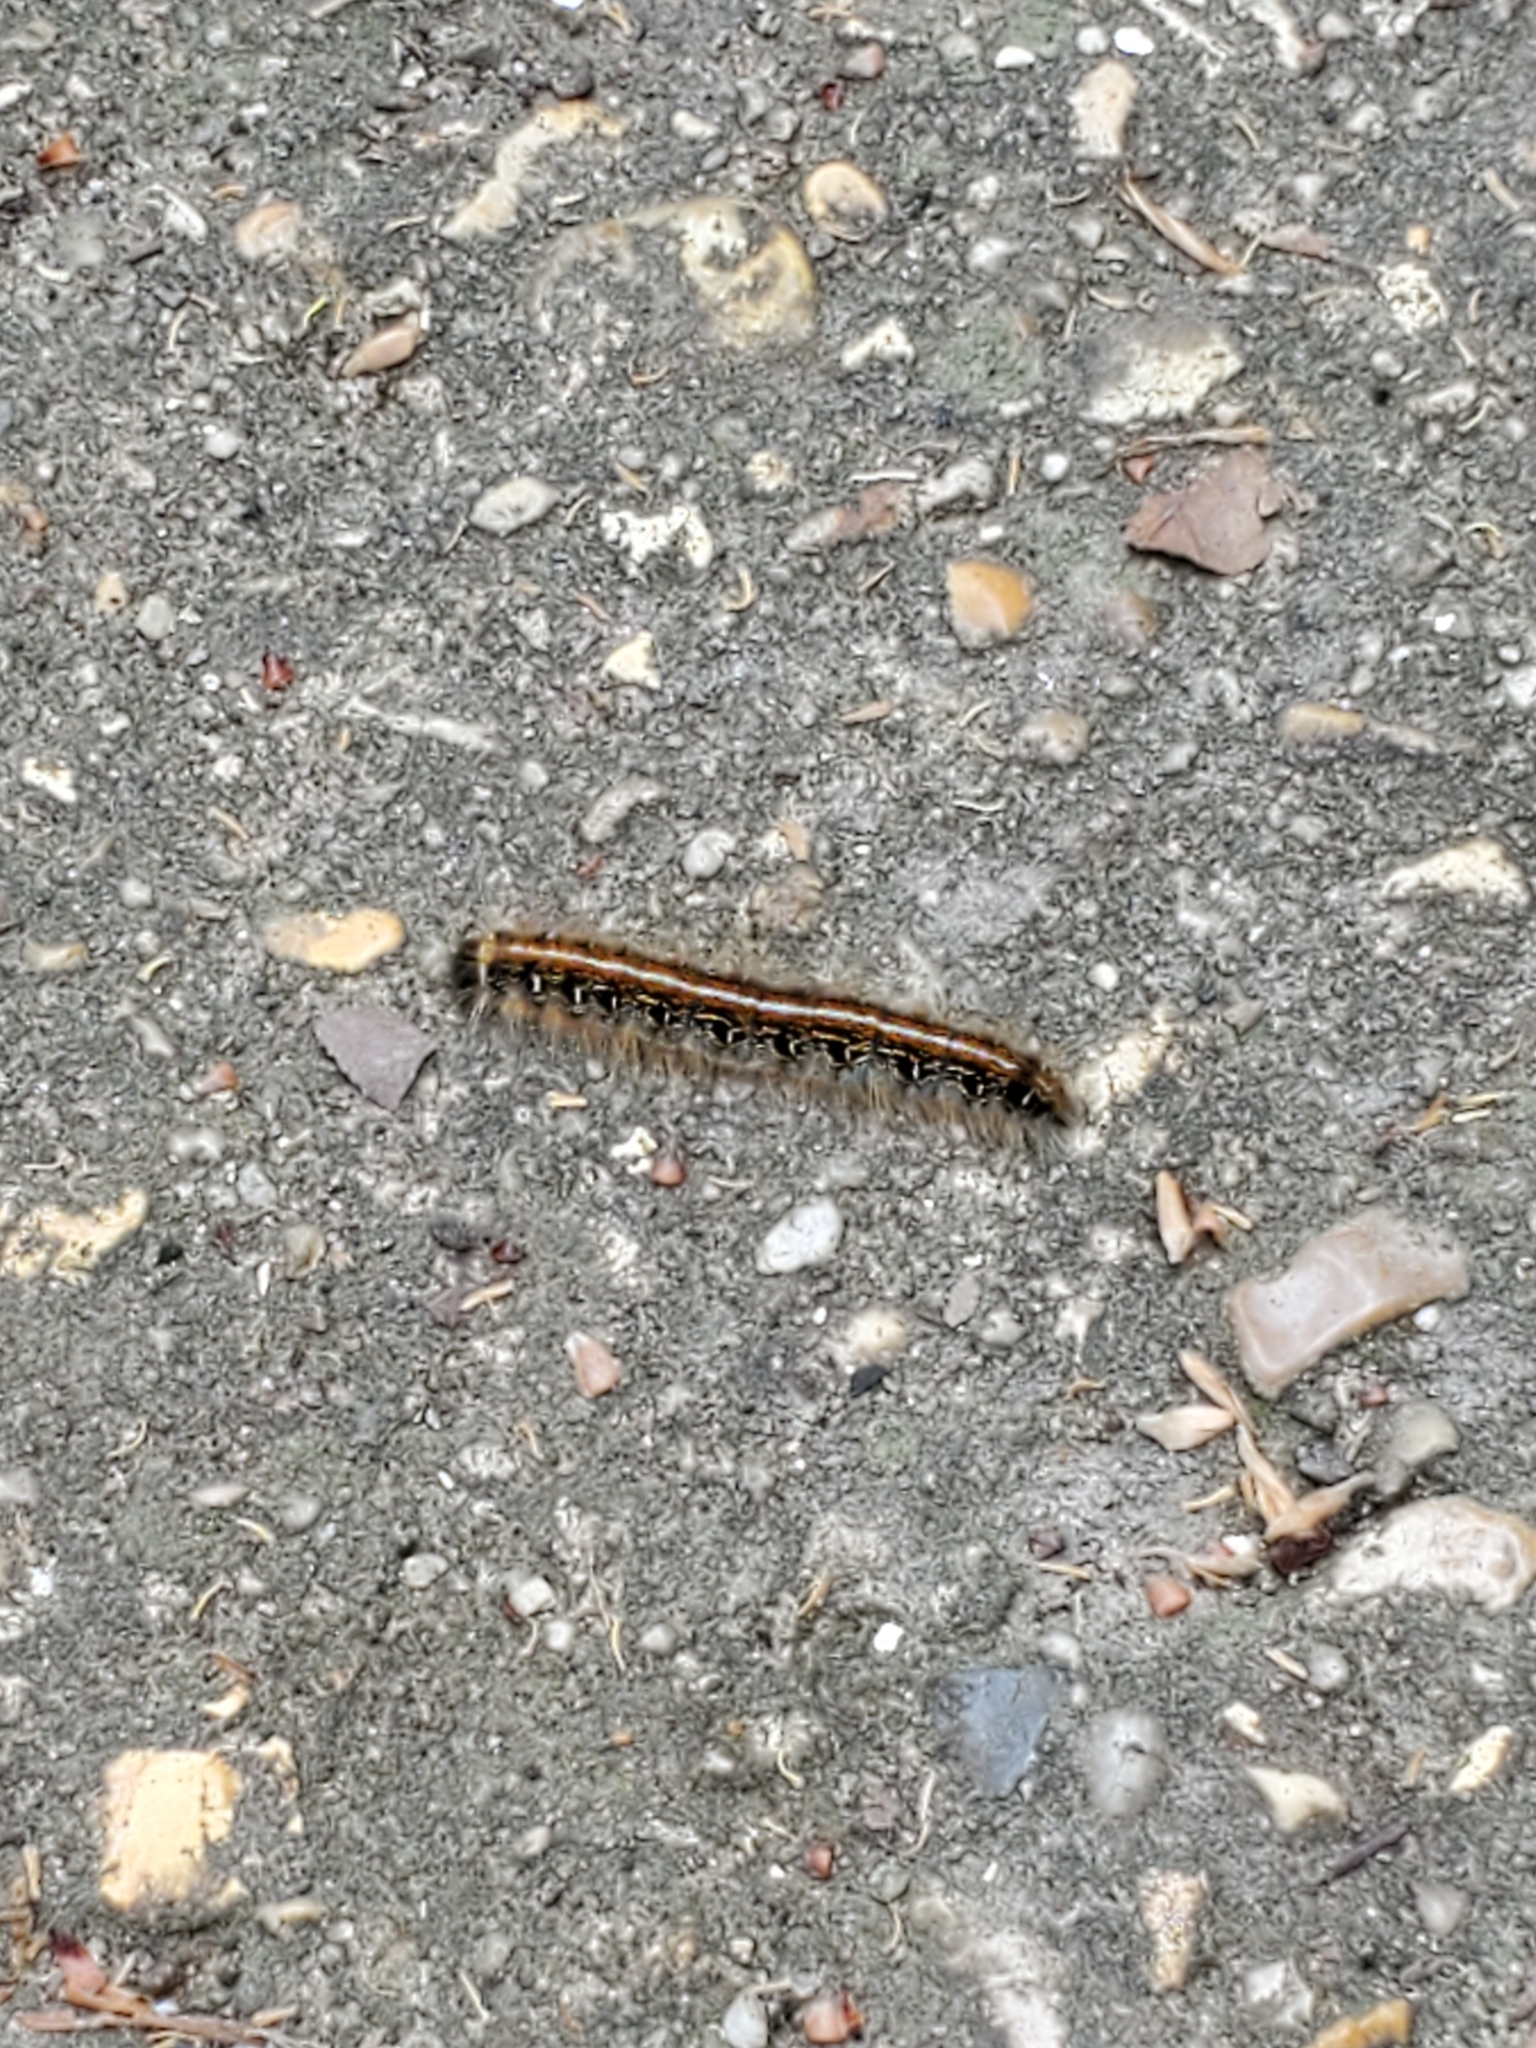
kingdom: Animalia
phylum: Arthropoda
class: Insecta
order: Lepidoptera
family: Lasiocampidae
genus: Malacosoma
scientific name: Malacosoma americana
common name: Eastern tent caterpillar moth
